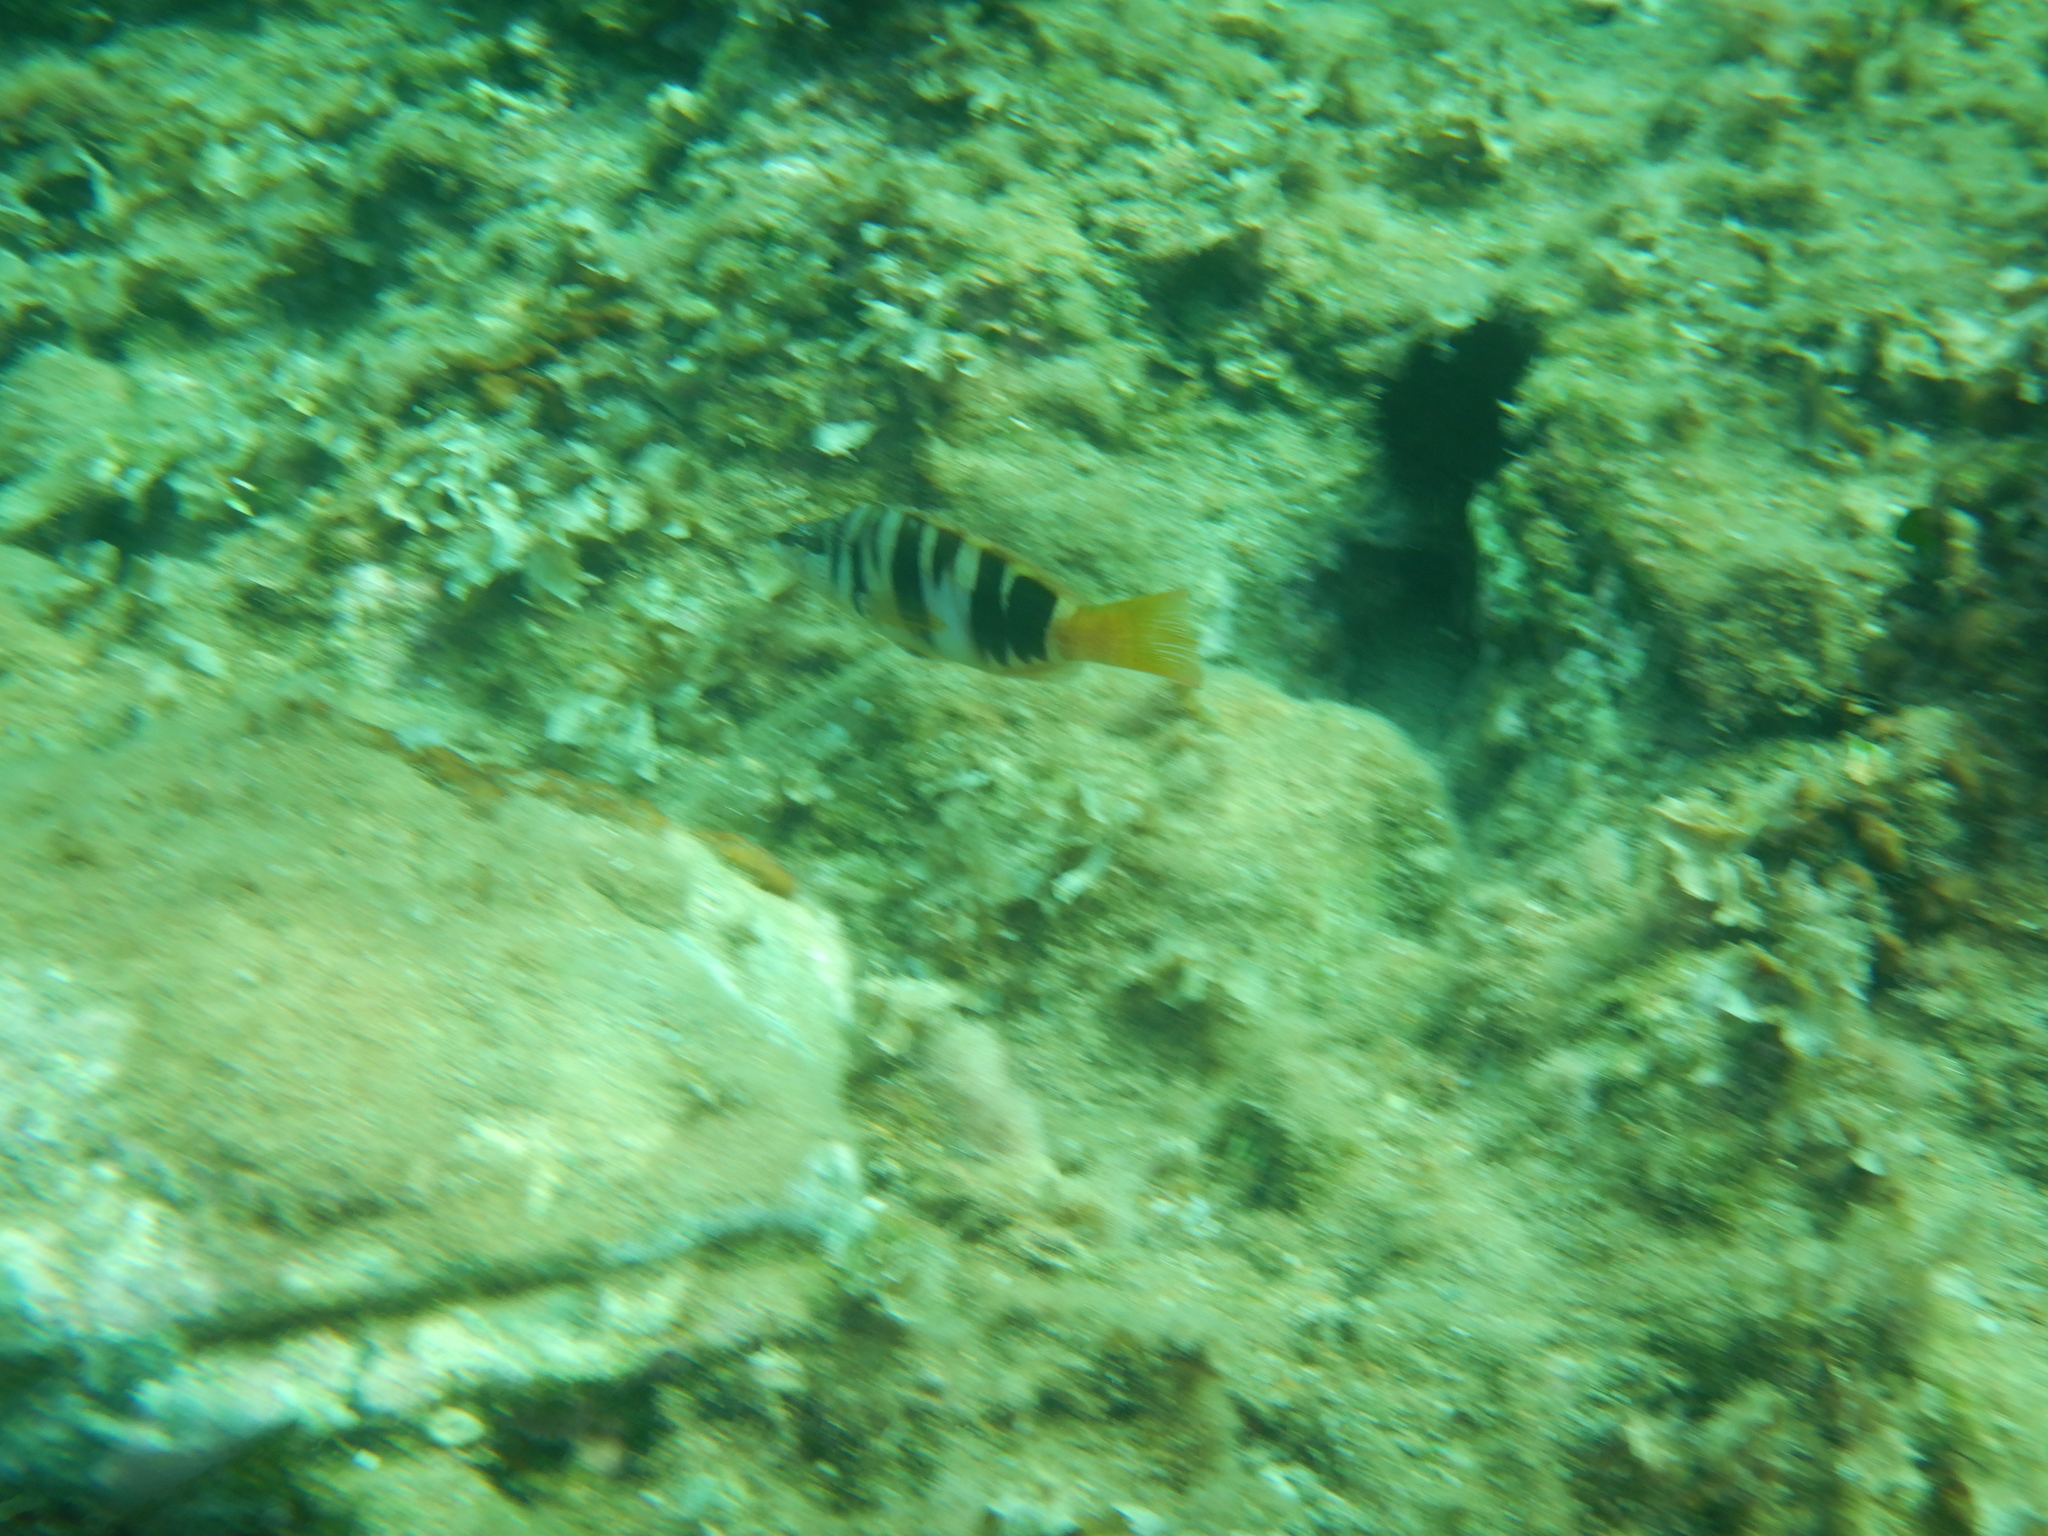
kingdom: Animalia
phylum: Chordata
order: Perciformes
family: Serranidae
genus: Serranus
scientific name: Serranus scriba
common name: Painted comber
